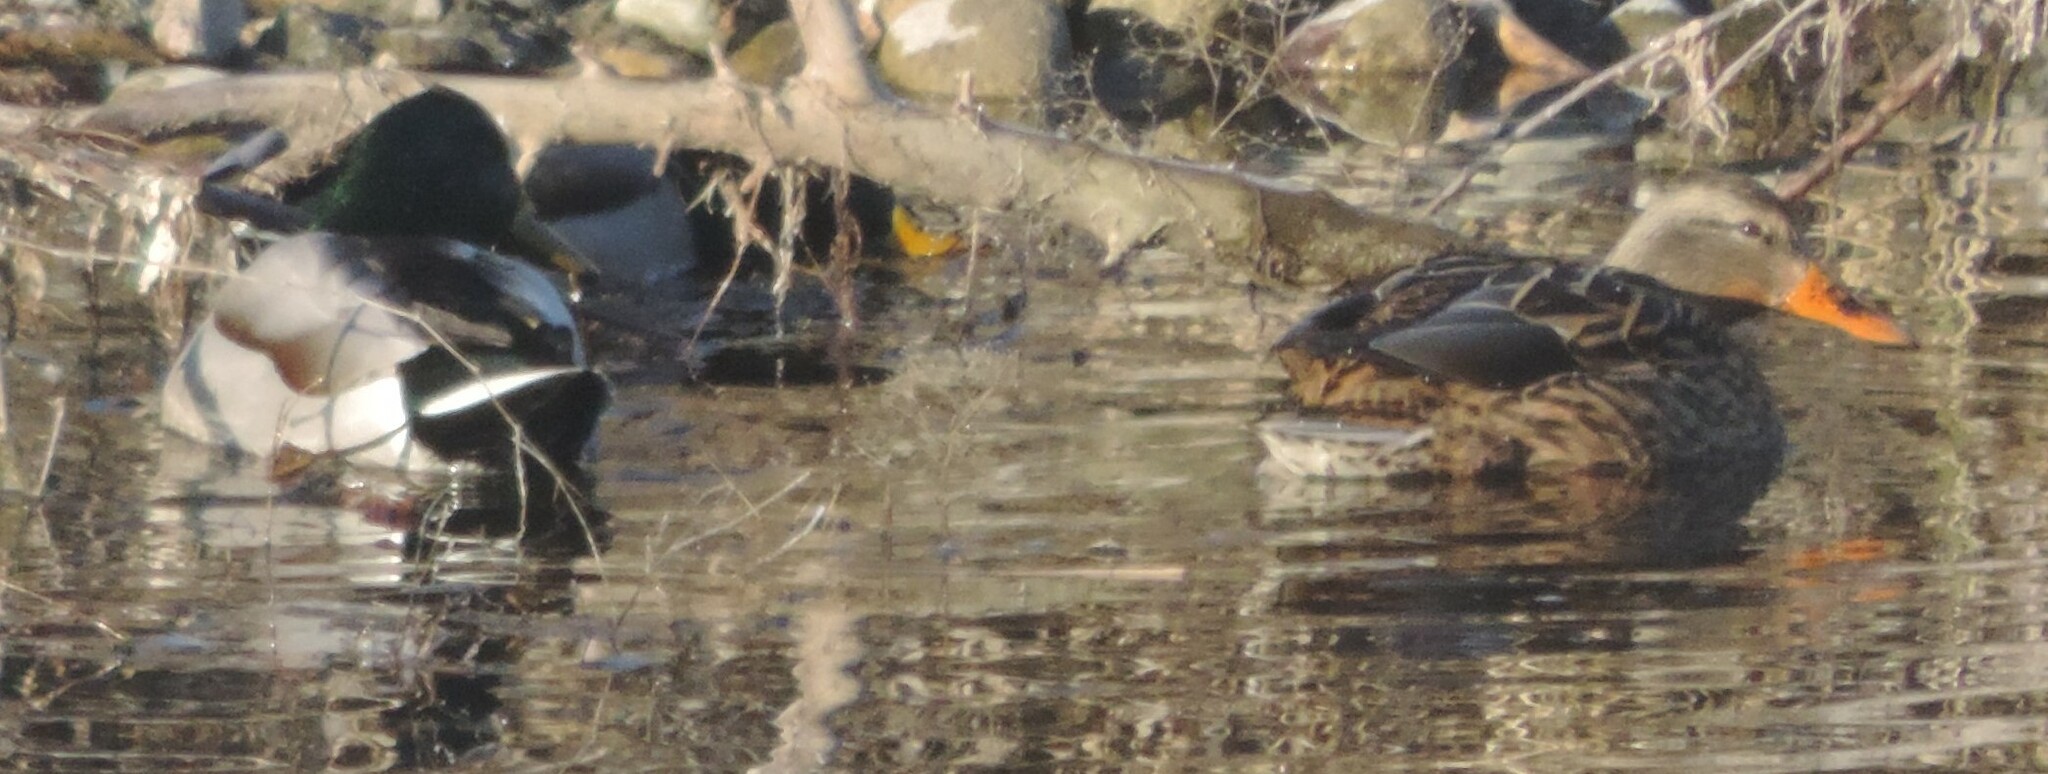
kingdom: Animalia
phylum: Chordata
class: Aves
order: Anseriformes
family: Anatidae
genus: Anas
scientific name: Anas platyrhynchos
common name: Mallard
